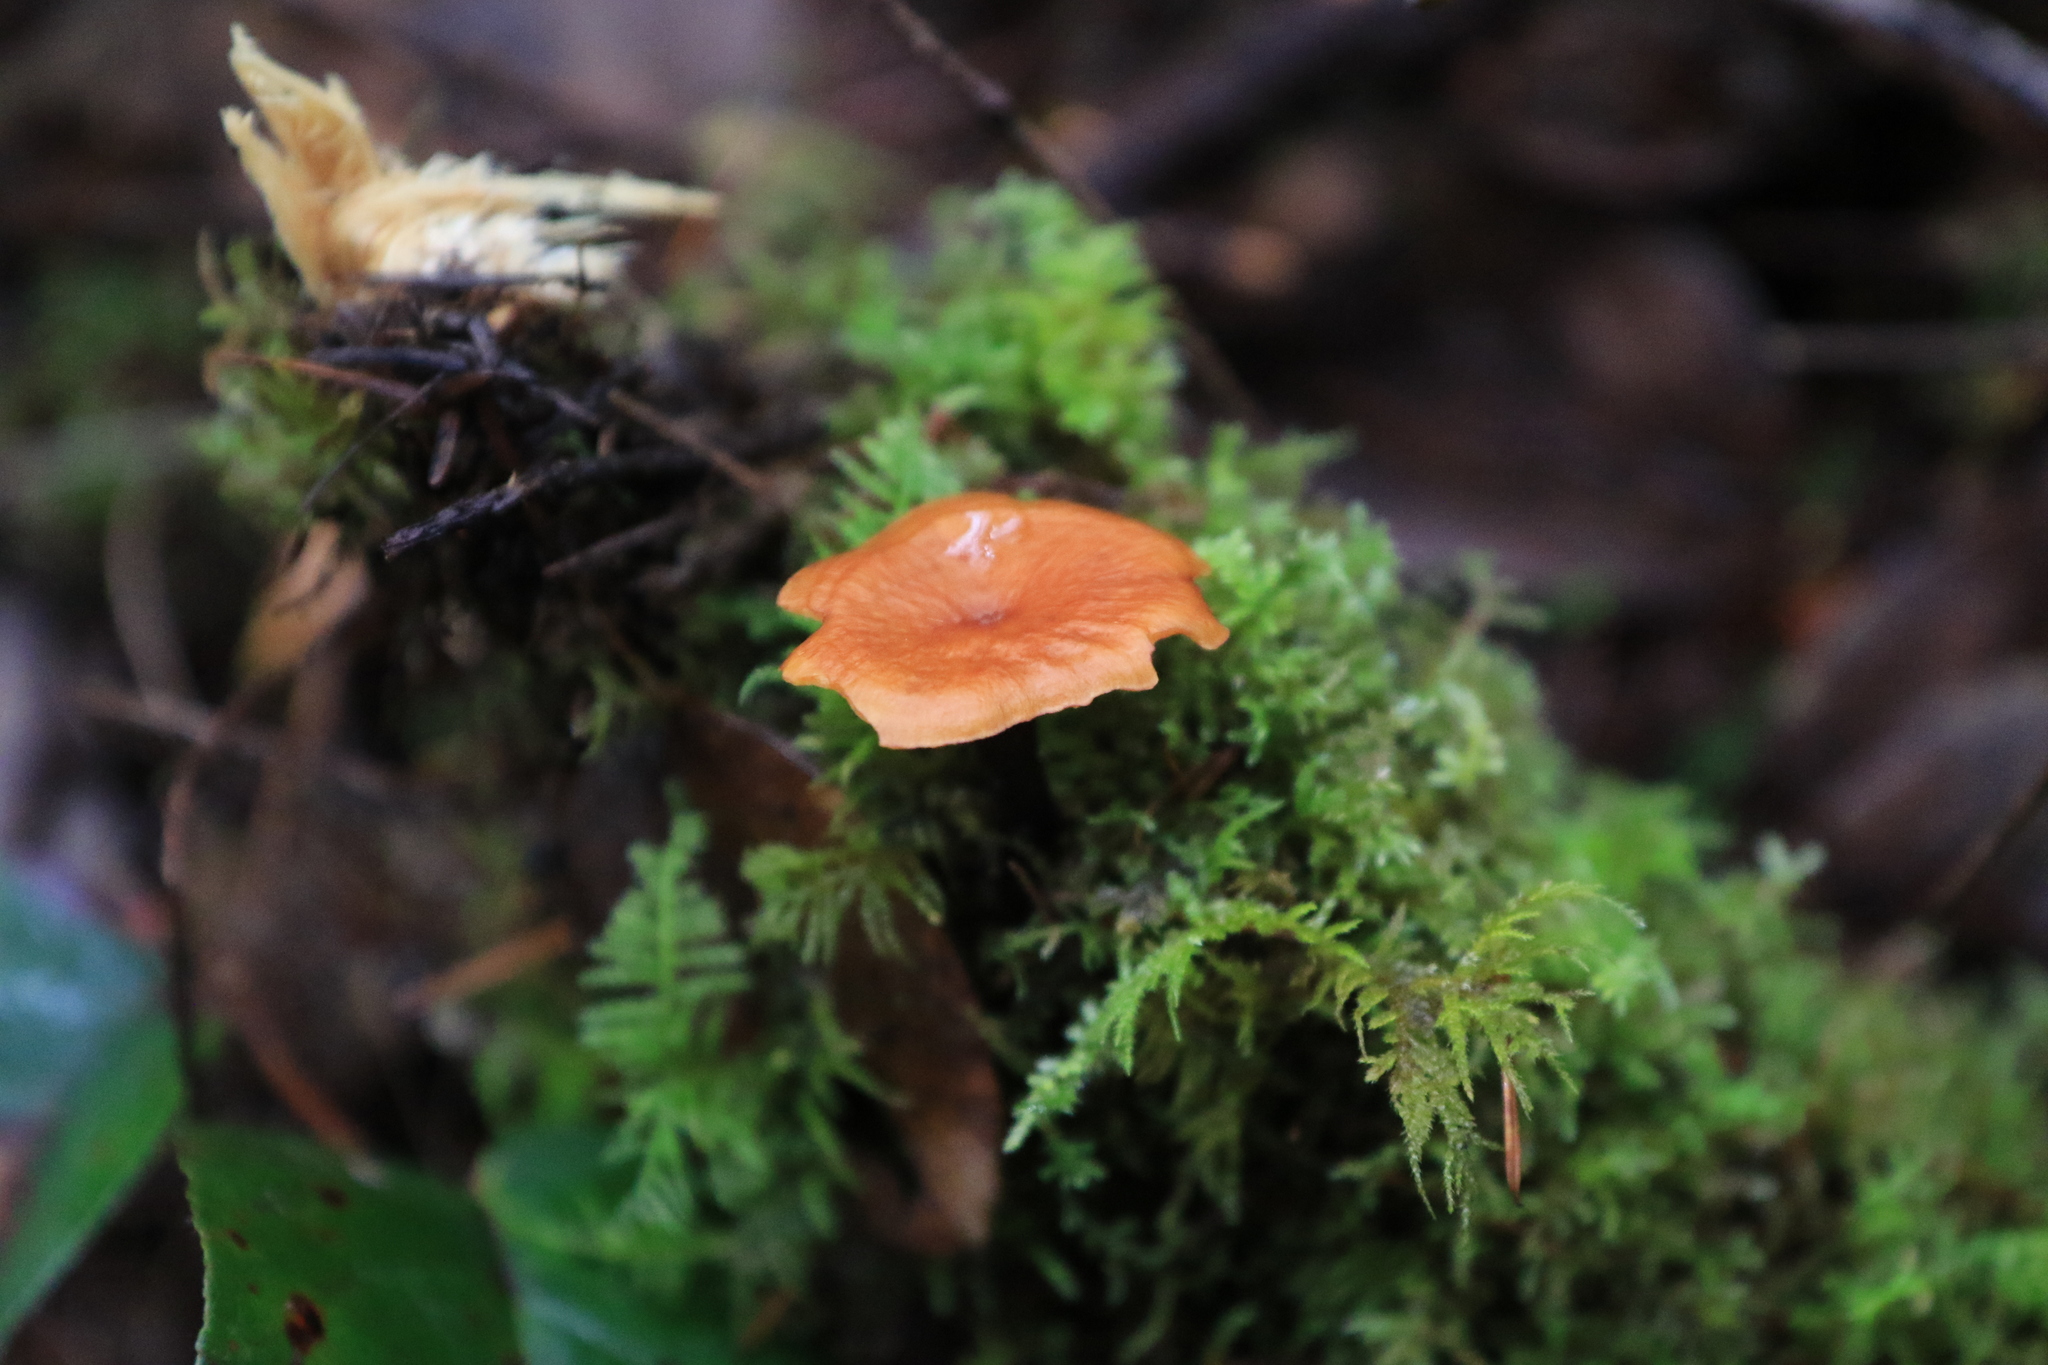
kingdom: Fungi
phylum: Basidiomycota
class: Agaricomycetes
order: Polyporales
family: Polyporaceae
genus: Picipes
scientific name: Picipes badius
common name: Bay polypore
